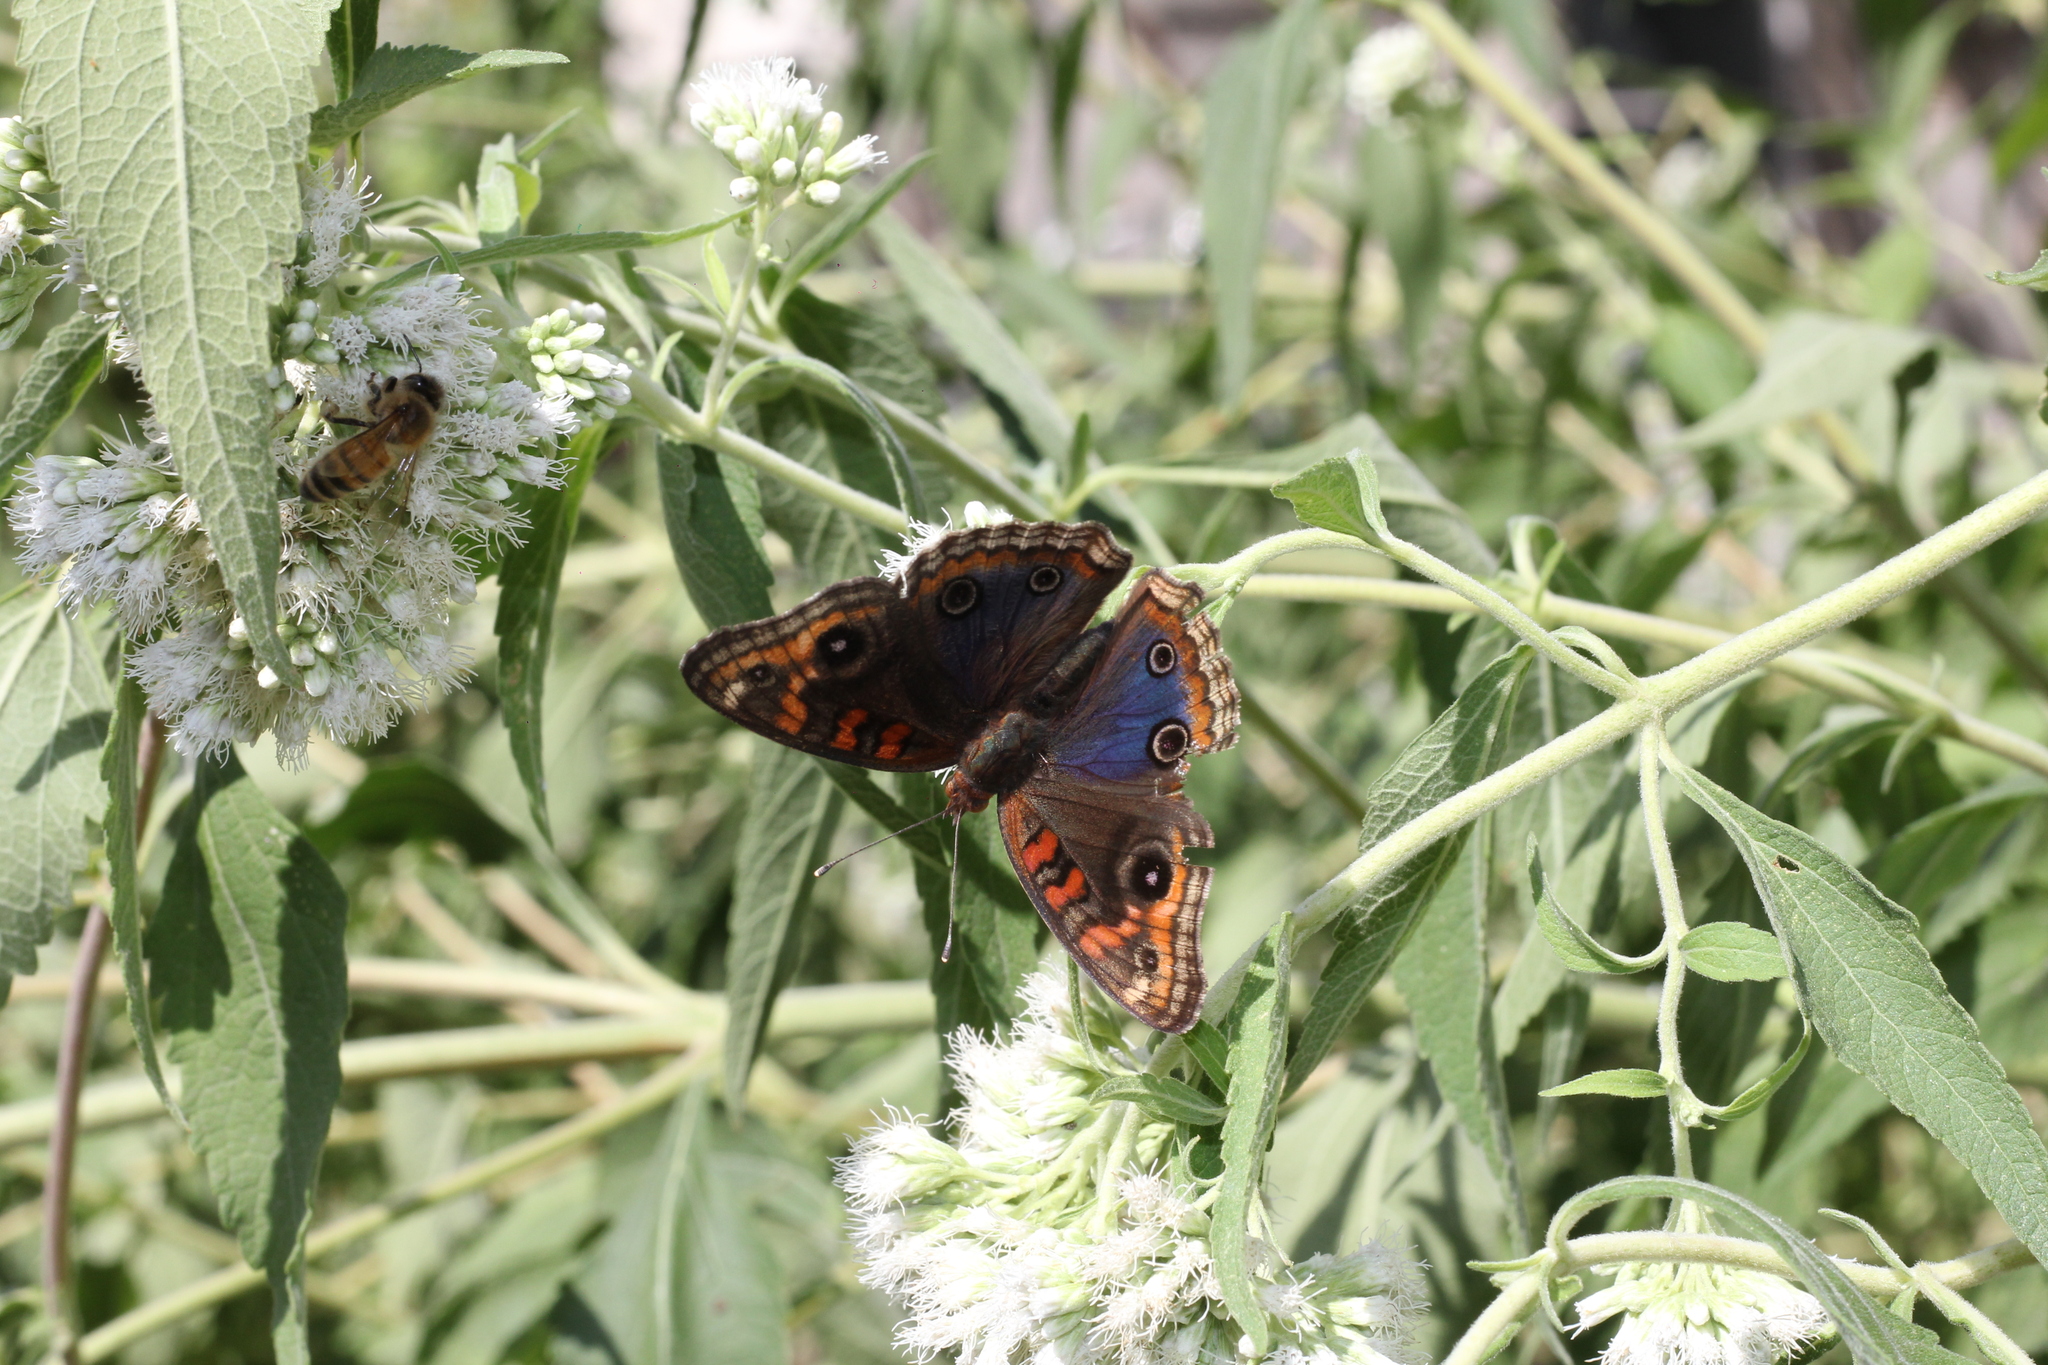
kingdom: Animalia
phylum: Arthropoda
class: Insecta
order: Lepidoptera
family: Nymphalidae
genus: Junonia
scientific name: Junonia lavinia
